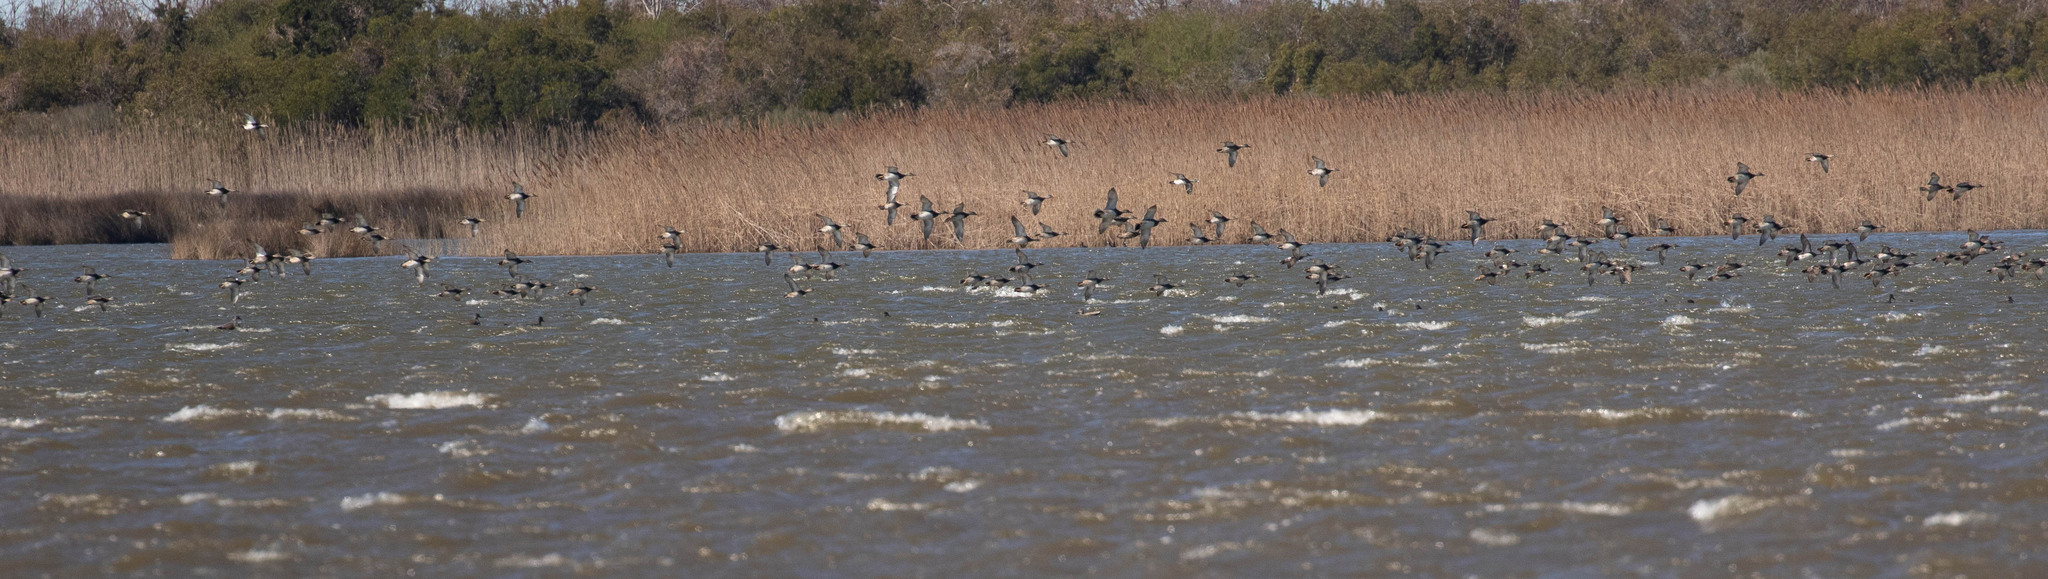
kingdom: Animalia
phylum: Chordata
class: Aves
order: Anseriformes
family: Anatidae
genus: Mareca
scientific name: Mareca strepera
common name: Gadwall
